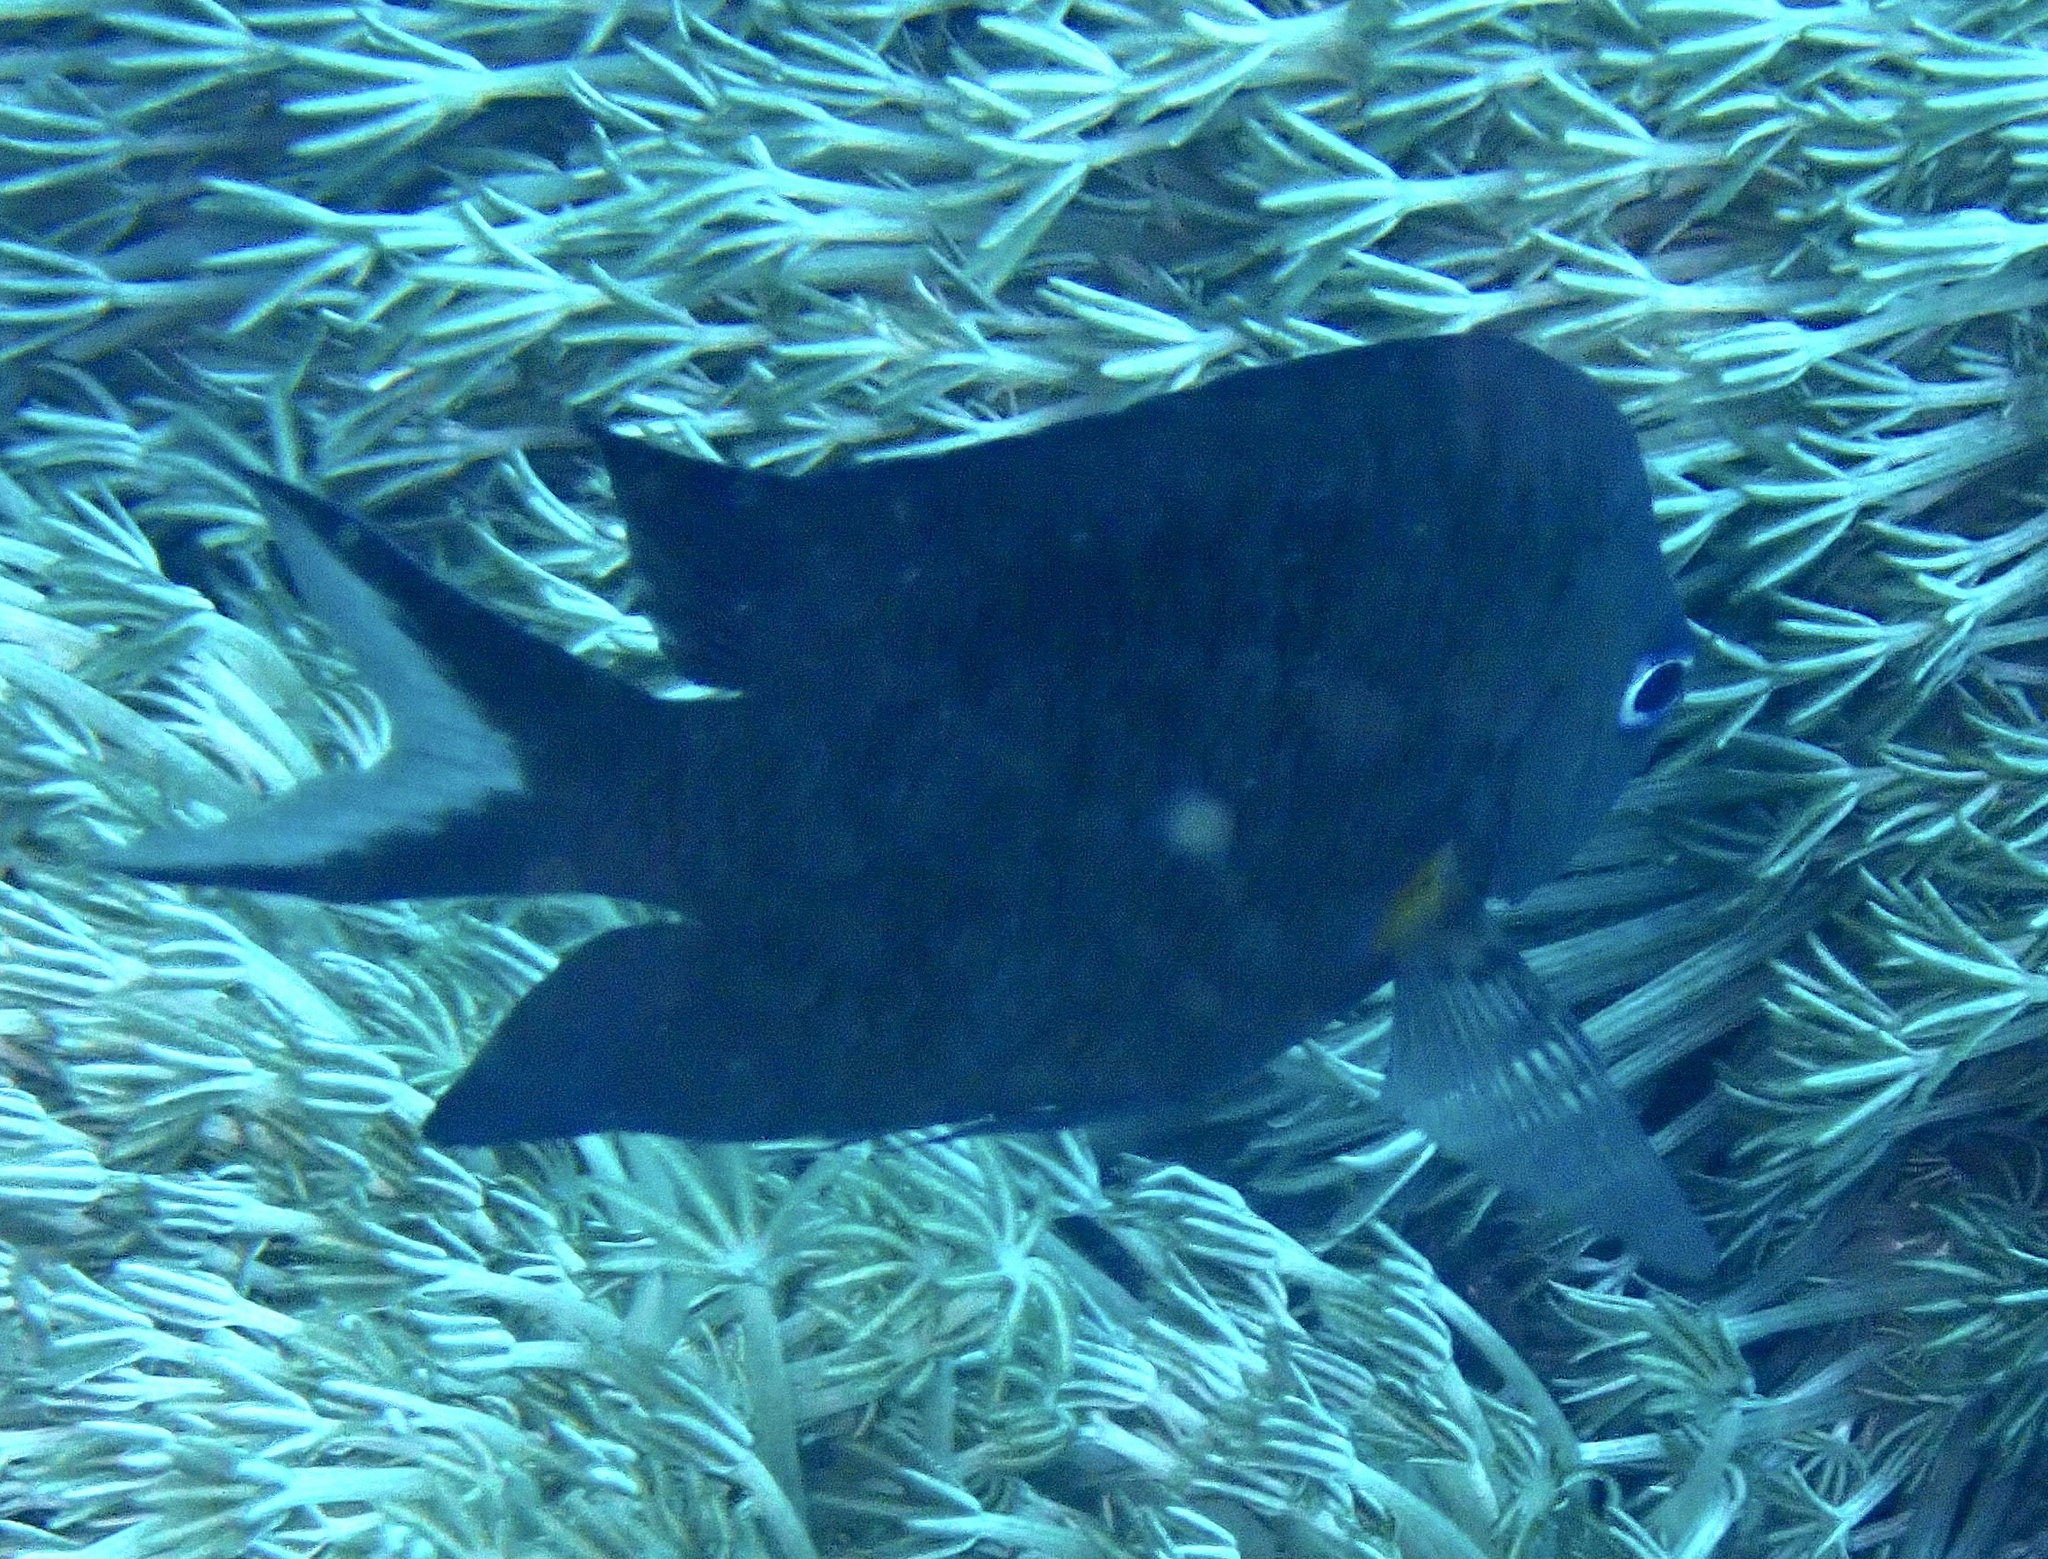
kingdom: Animalia
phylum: Chordata
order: Perciformes
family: Pomacentridae
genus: Acanthochromis
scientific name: Acanthochromis polyacanthus
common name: Spiny chromis
